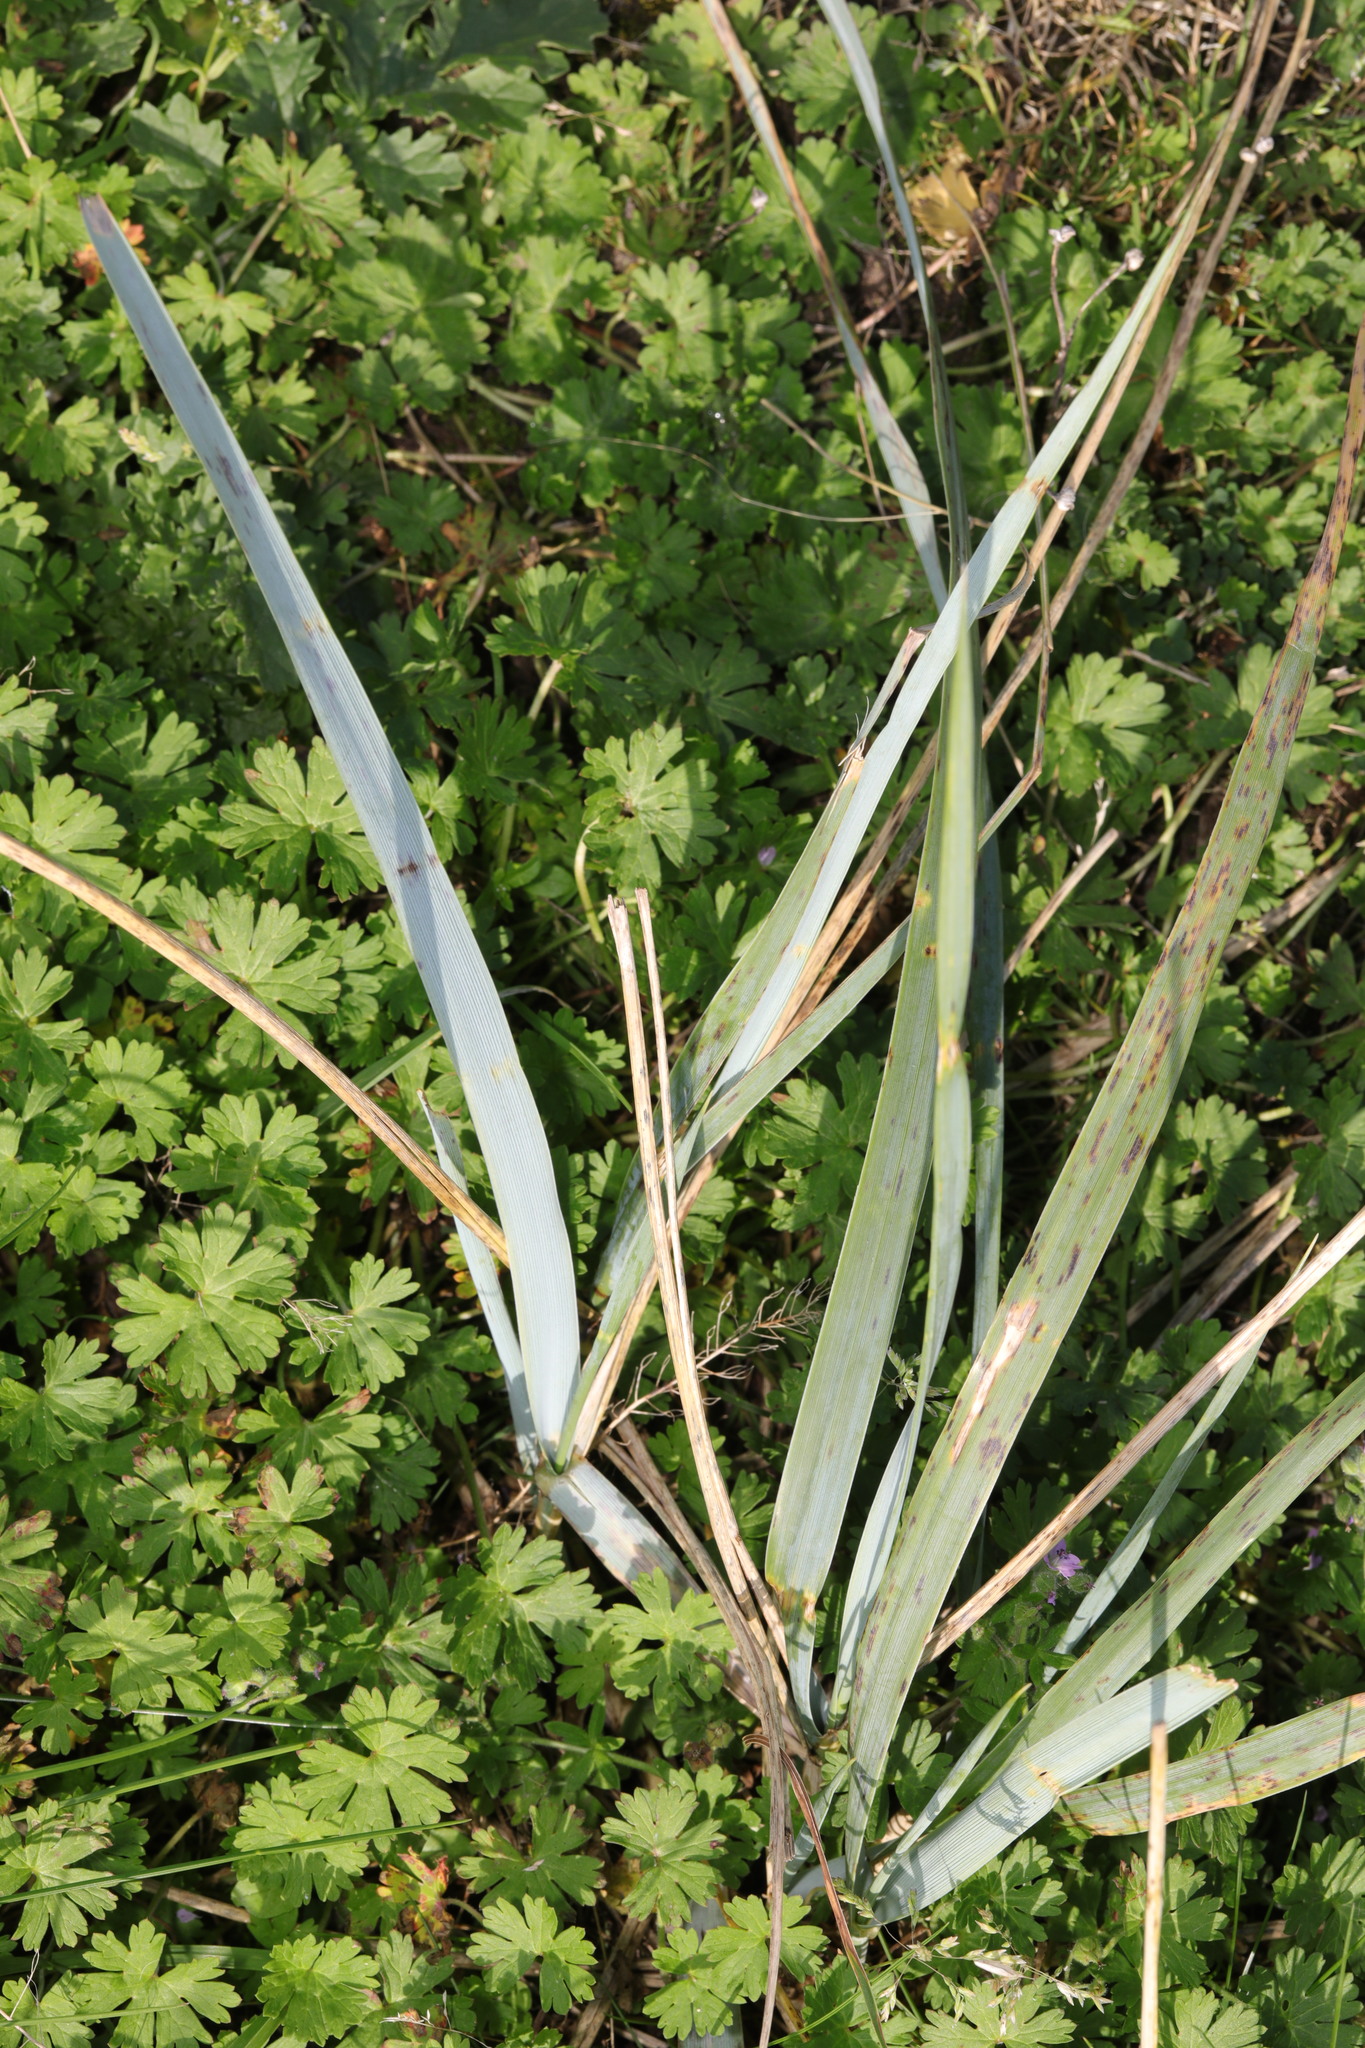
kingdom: Plantae
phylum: Tracheophyta
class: Liliopsida
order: Poales
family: Poaceae
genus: Leymus
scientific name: Leymus arenarius
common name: Lyme-grass
